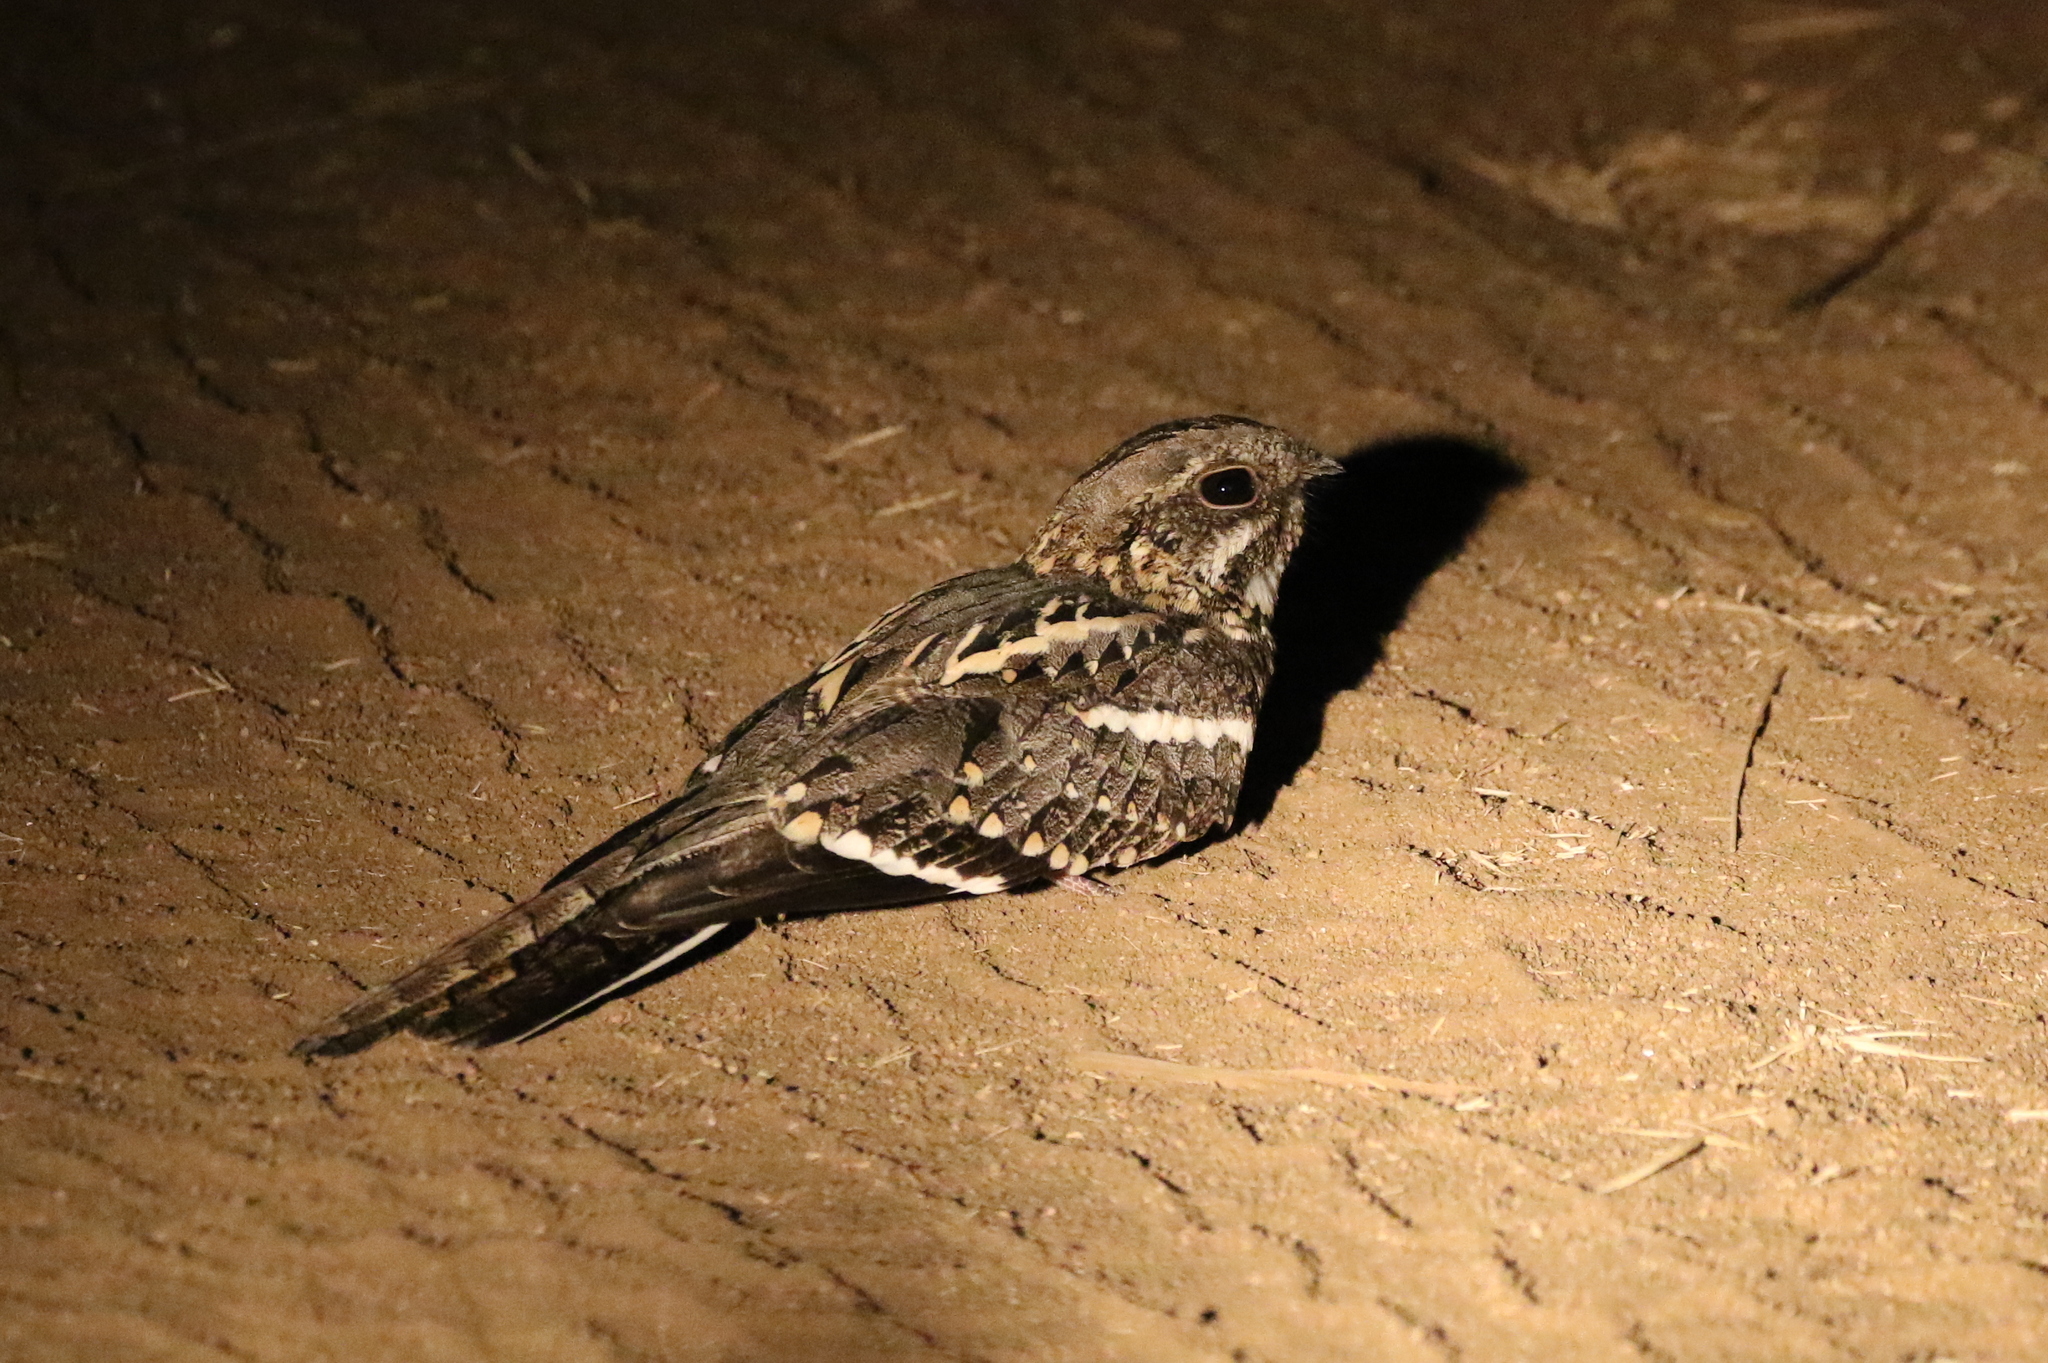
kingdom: Animalia
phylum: Chordata
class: Aves
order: Caprimulgiformes
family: Caprimulgidae
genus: Caprimulgus
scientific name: Caprimulgus clarus
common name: Slender-tailed nightjar
